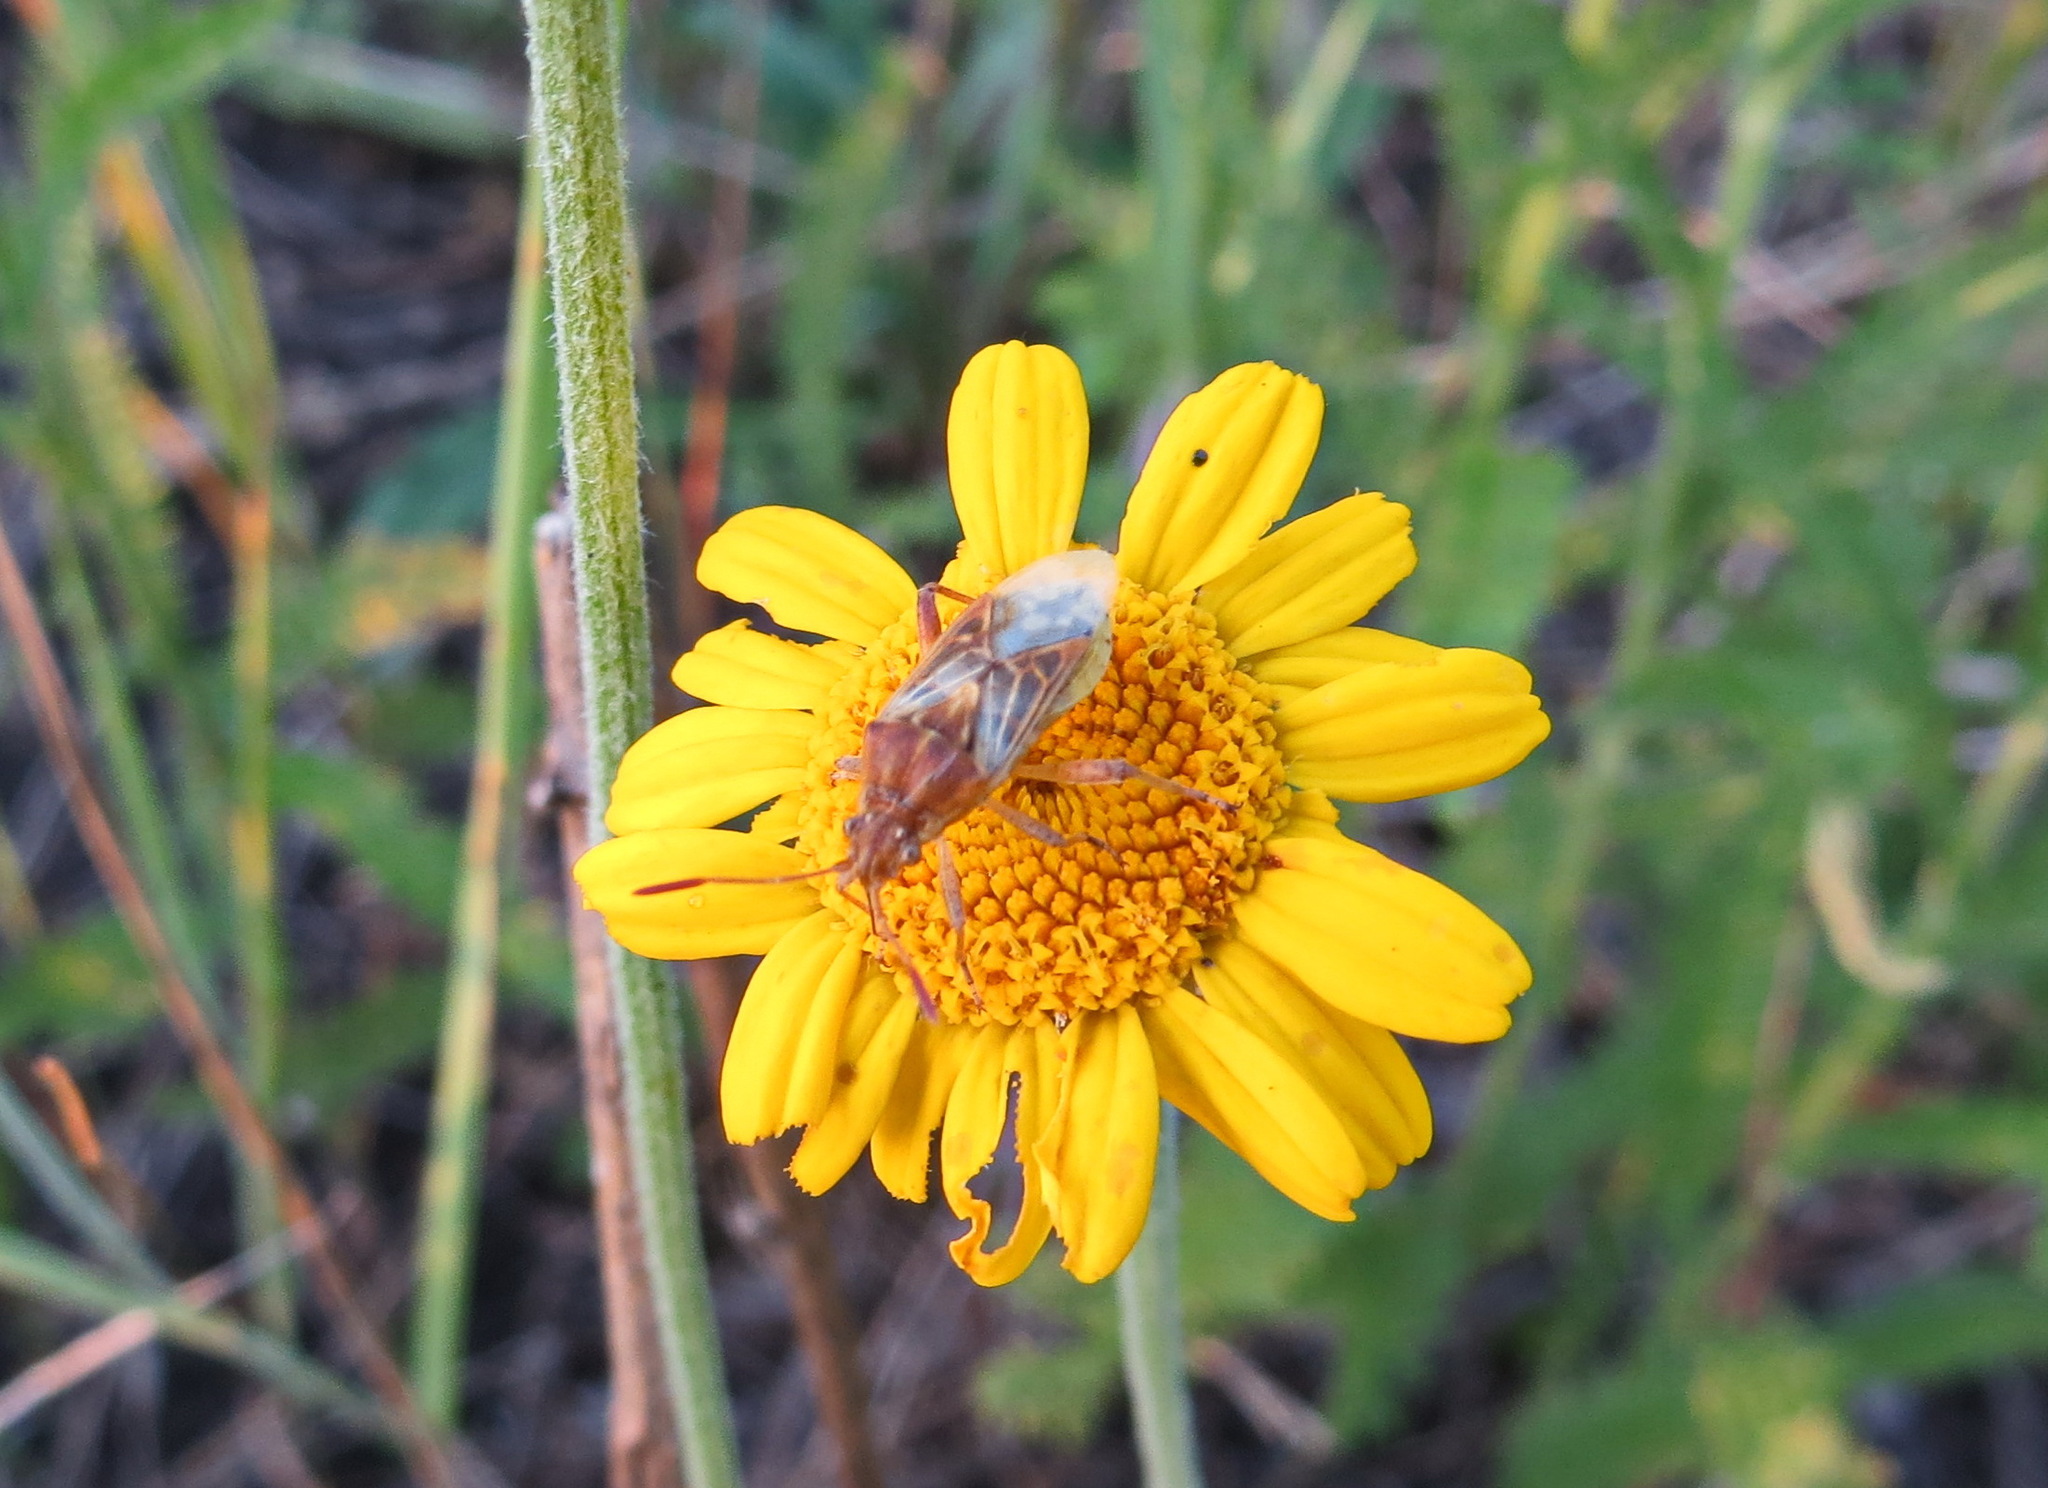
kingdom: Animalia
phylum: Arthropoda
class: Insecta
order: Hemiptera
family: Rhopalidae
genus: Stictopleurus
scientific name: Stictopleurus abutilon
